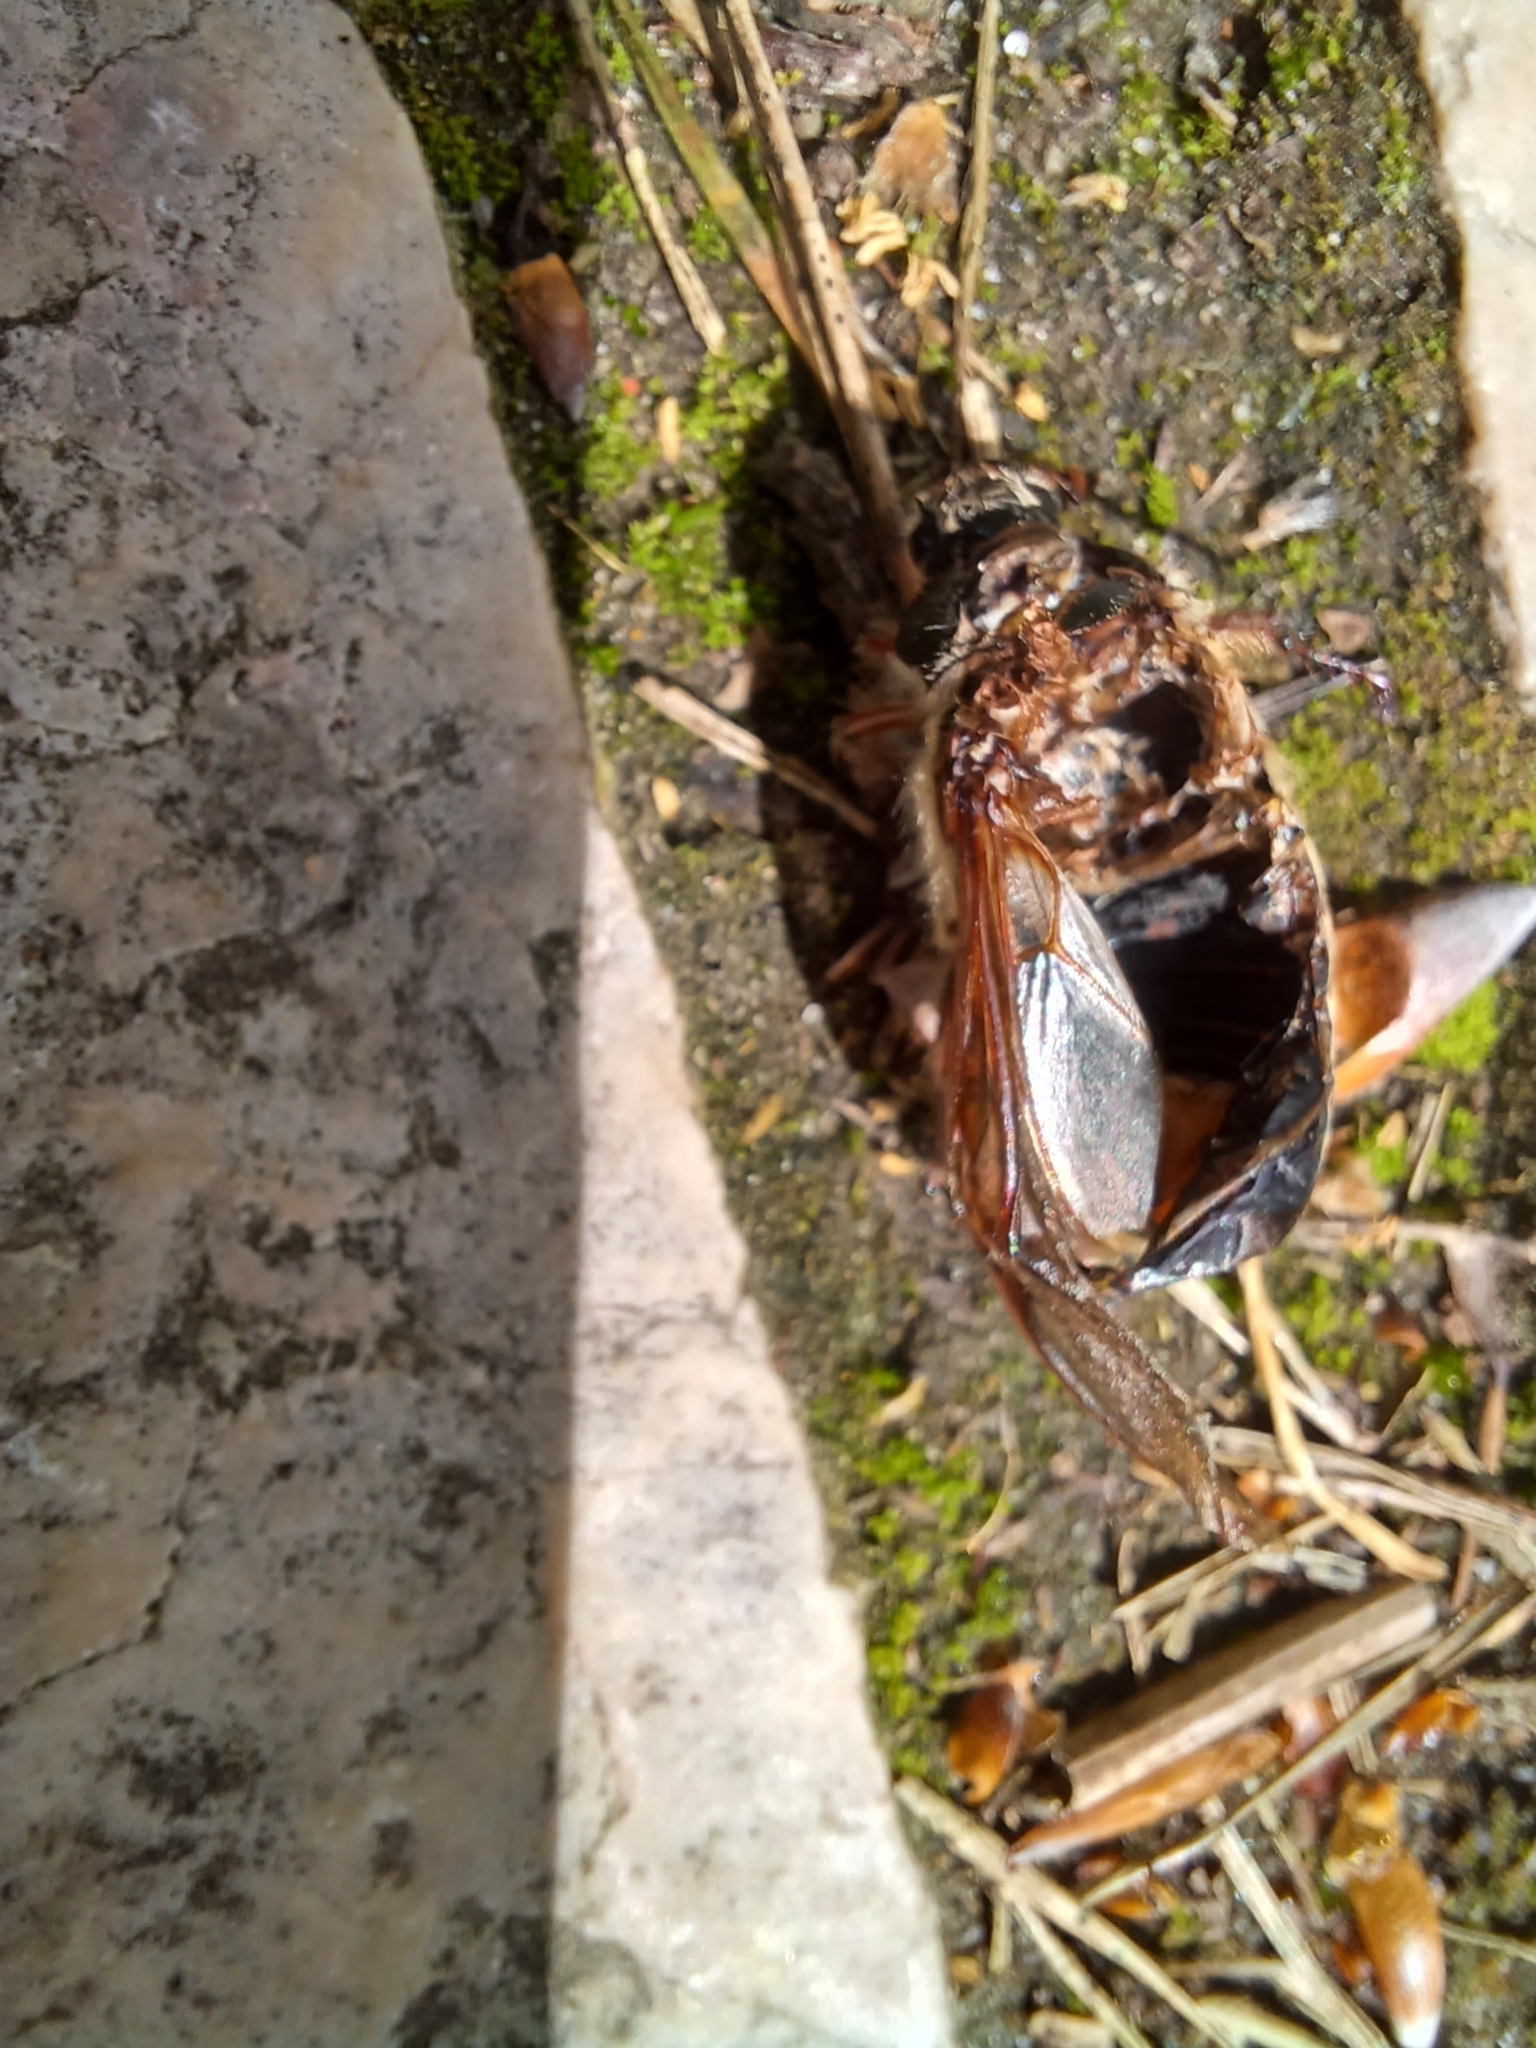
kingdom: Animalia
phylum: Arthropoda
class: Insecta
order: Coleoptera
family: Scarabaeidae
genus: Melolontha
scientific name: Melolontha melolontha
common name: Cockchafer maybeetle
